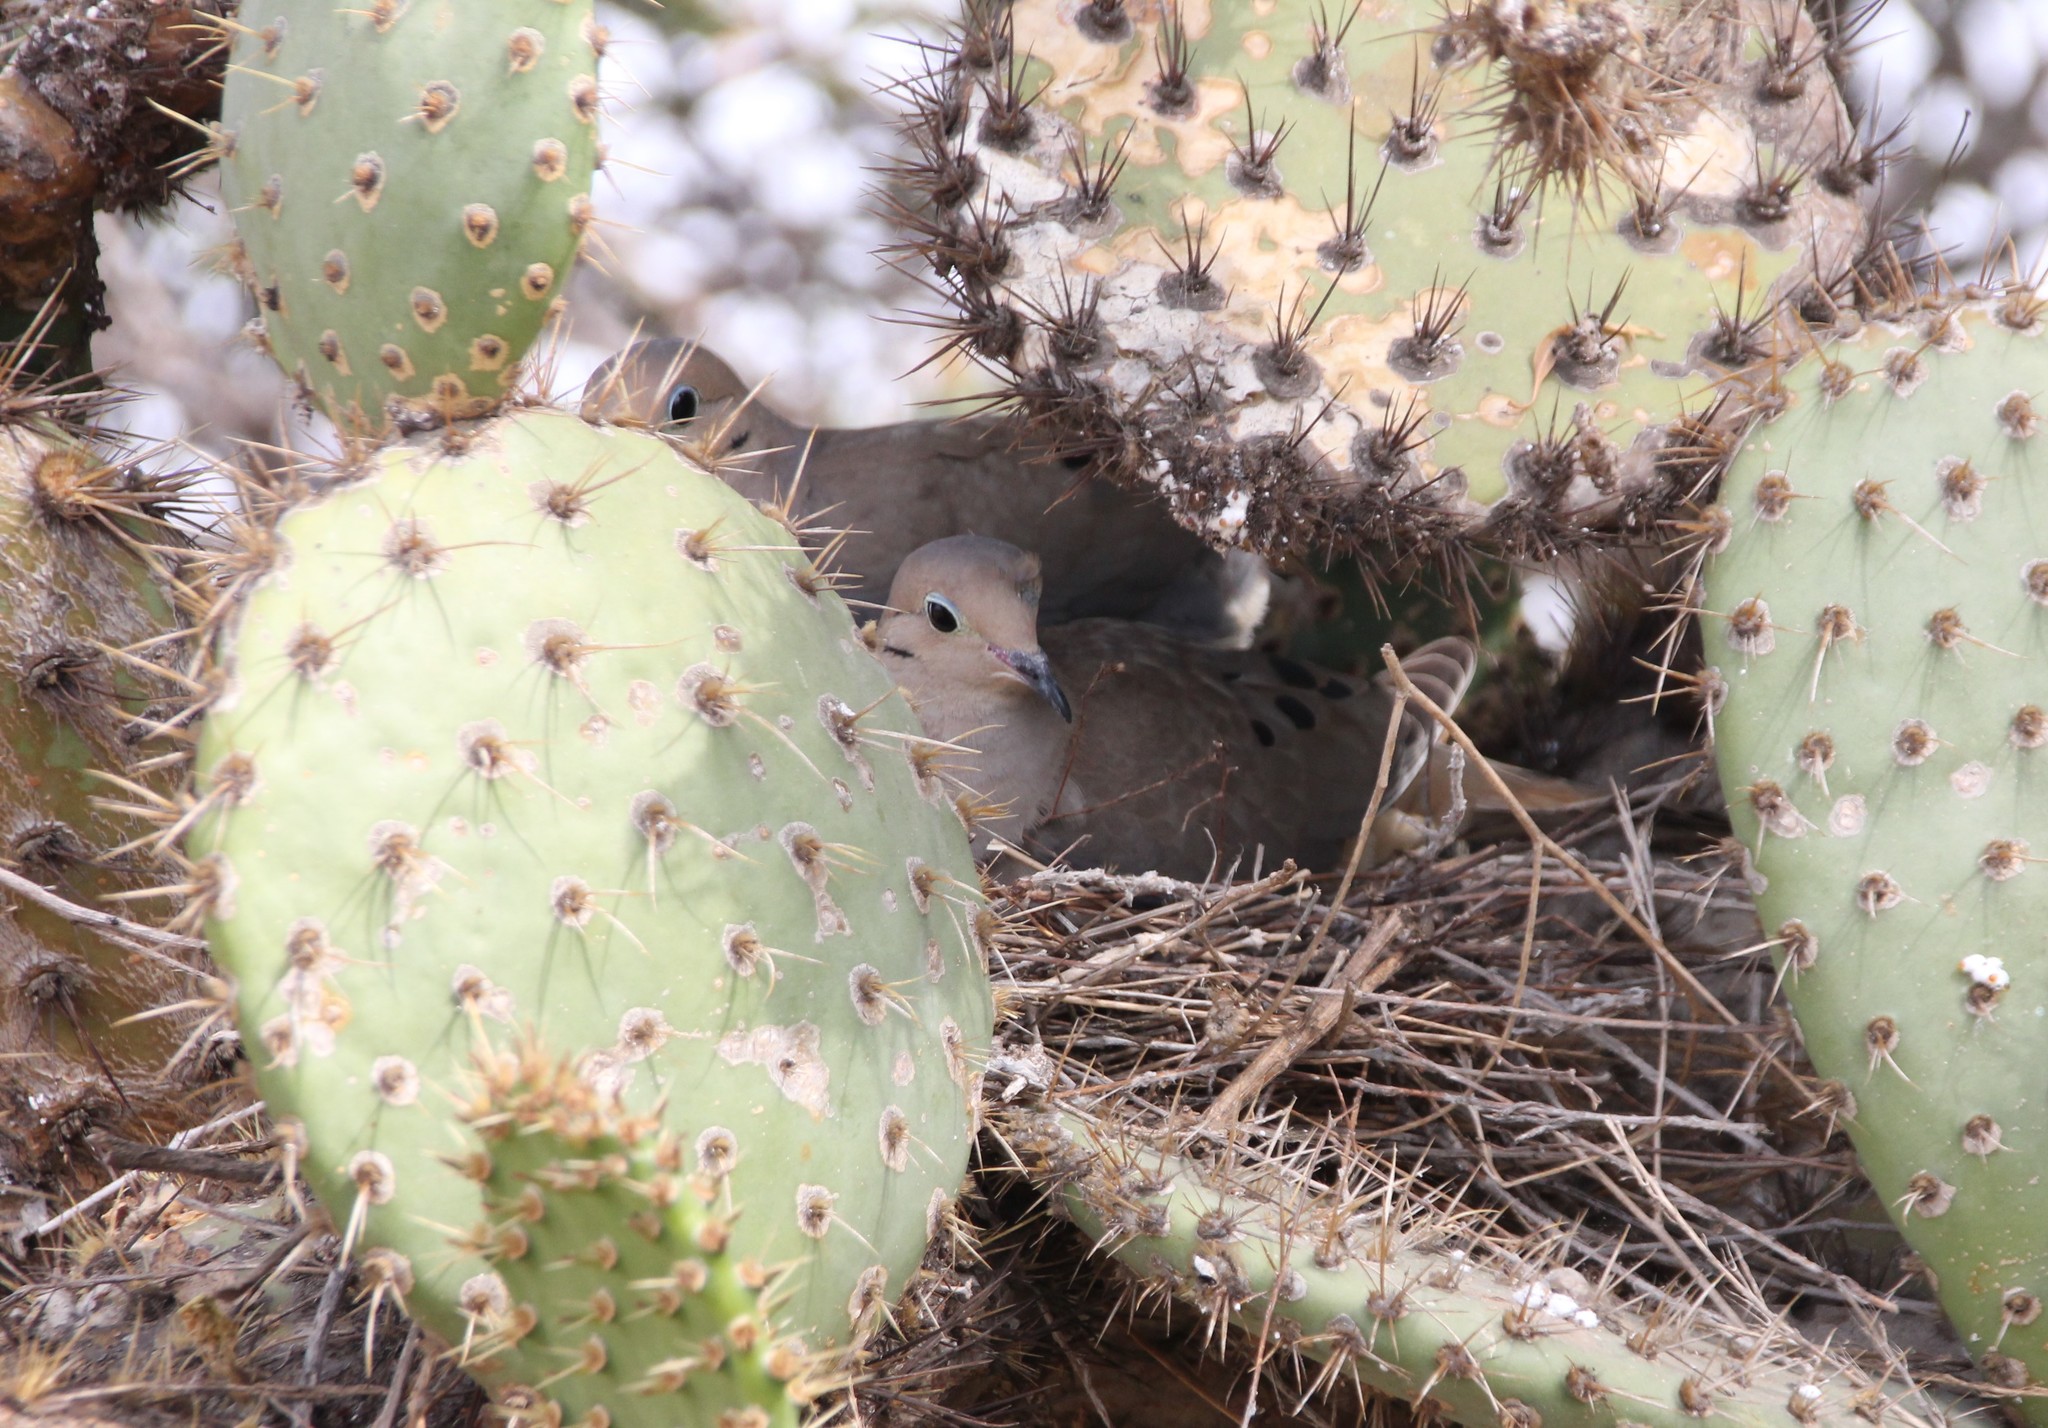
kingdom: Animalia
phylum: Chordata
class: Aves
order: Columbiformes
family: Columbidae
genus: Zenaida
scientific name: Zenaida macroura
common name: Mourning dove
